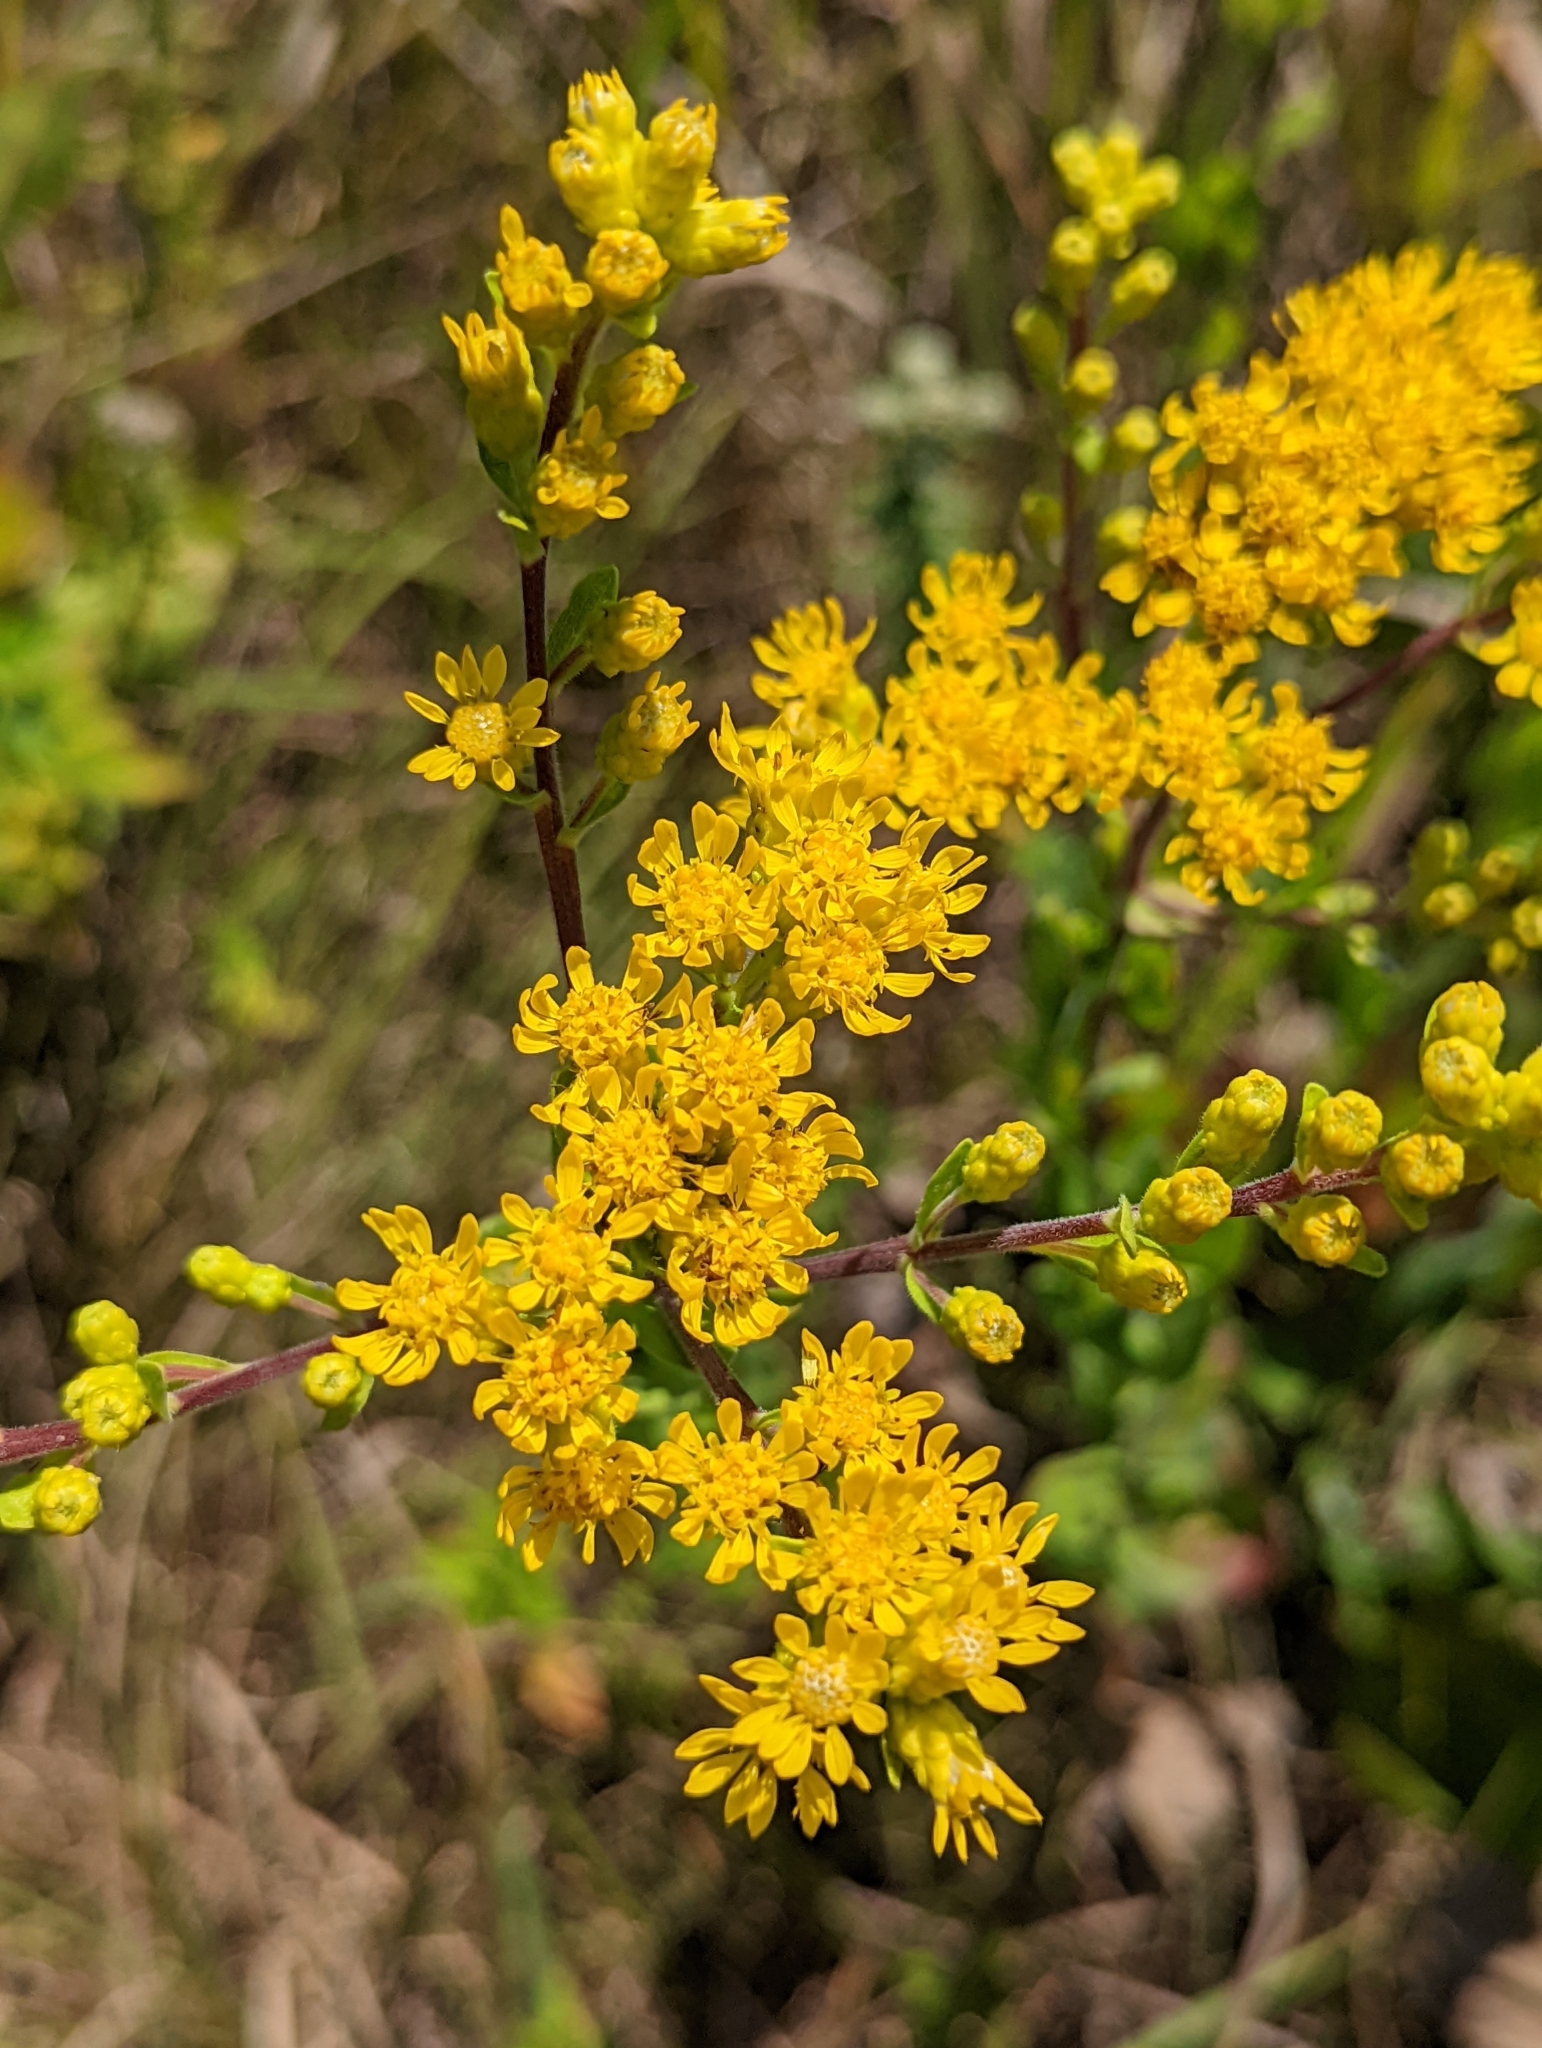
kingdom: Plantae
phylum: Tracheophyta
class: Magnoliopsida
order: Asterales
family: Asteraceae
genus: Solidago
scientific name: Solidago rigida
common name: Rigid goldenrod
